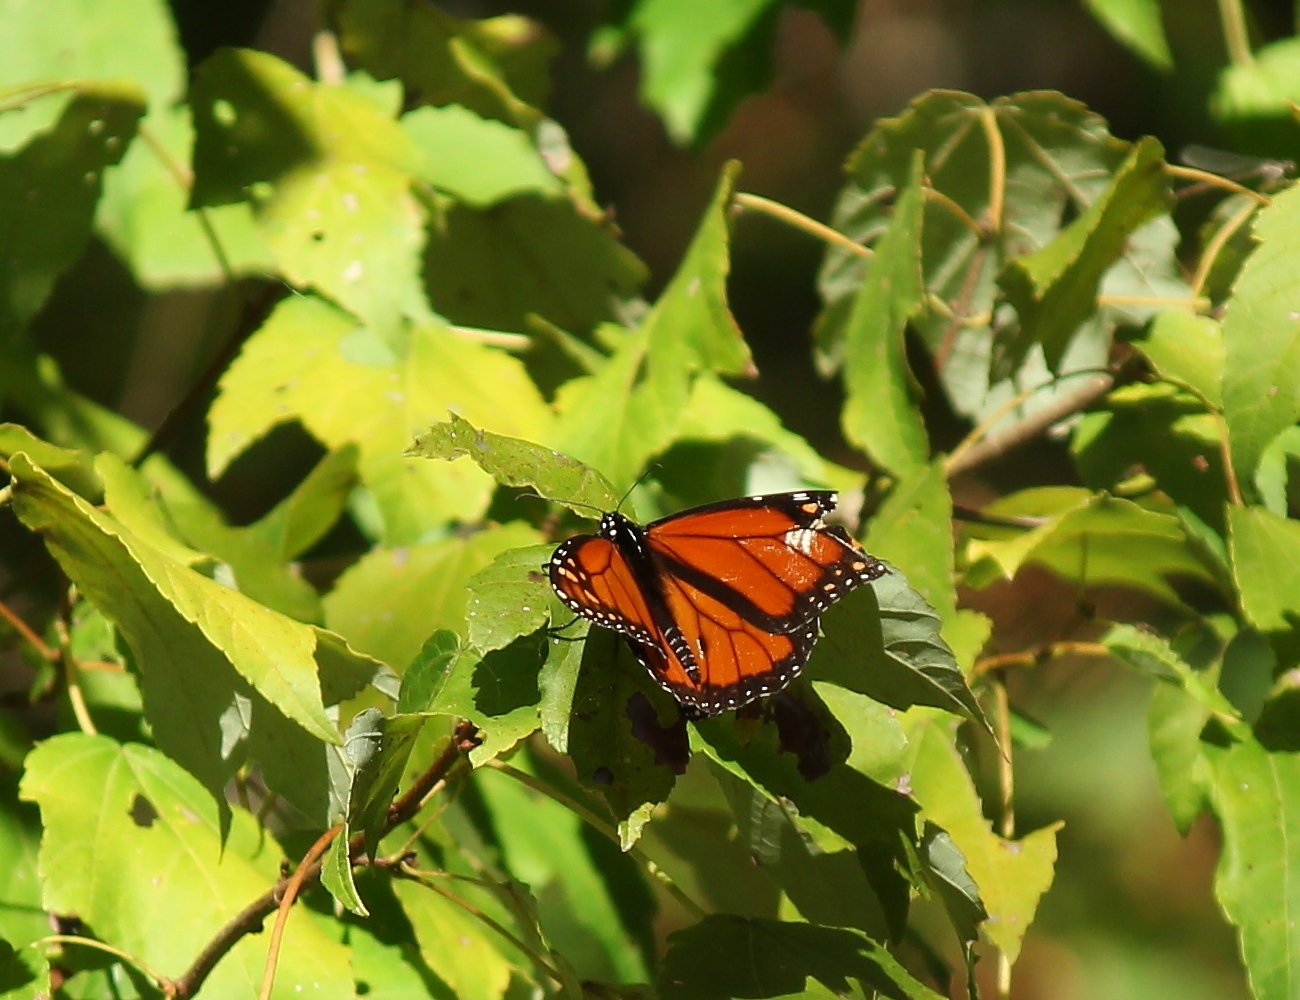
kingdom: Animalia
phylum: Arthropoda
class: Insecta
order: Lepidoptera
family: Nymphalidae
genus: Danaus
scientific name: Danaus plexippus
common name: Monarch
